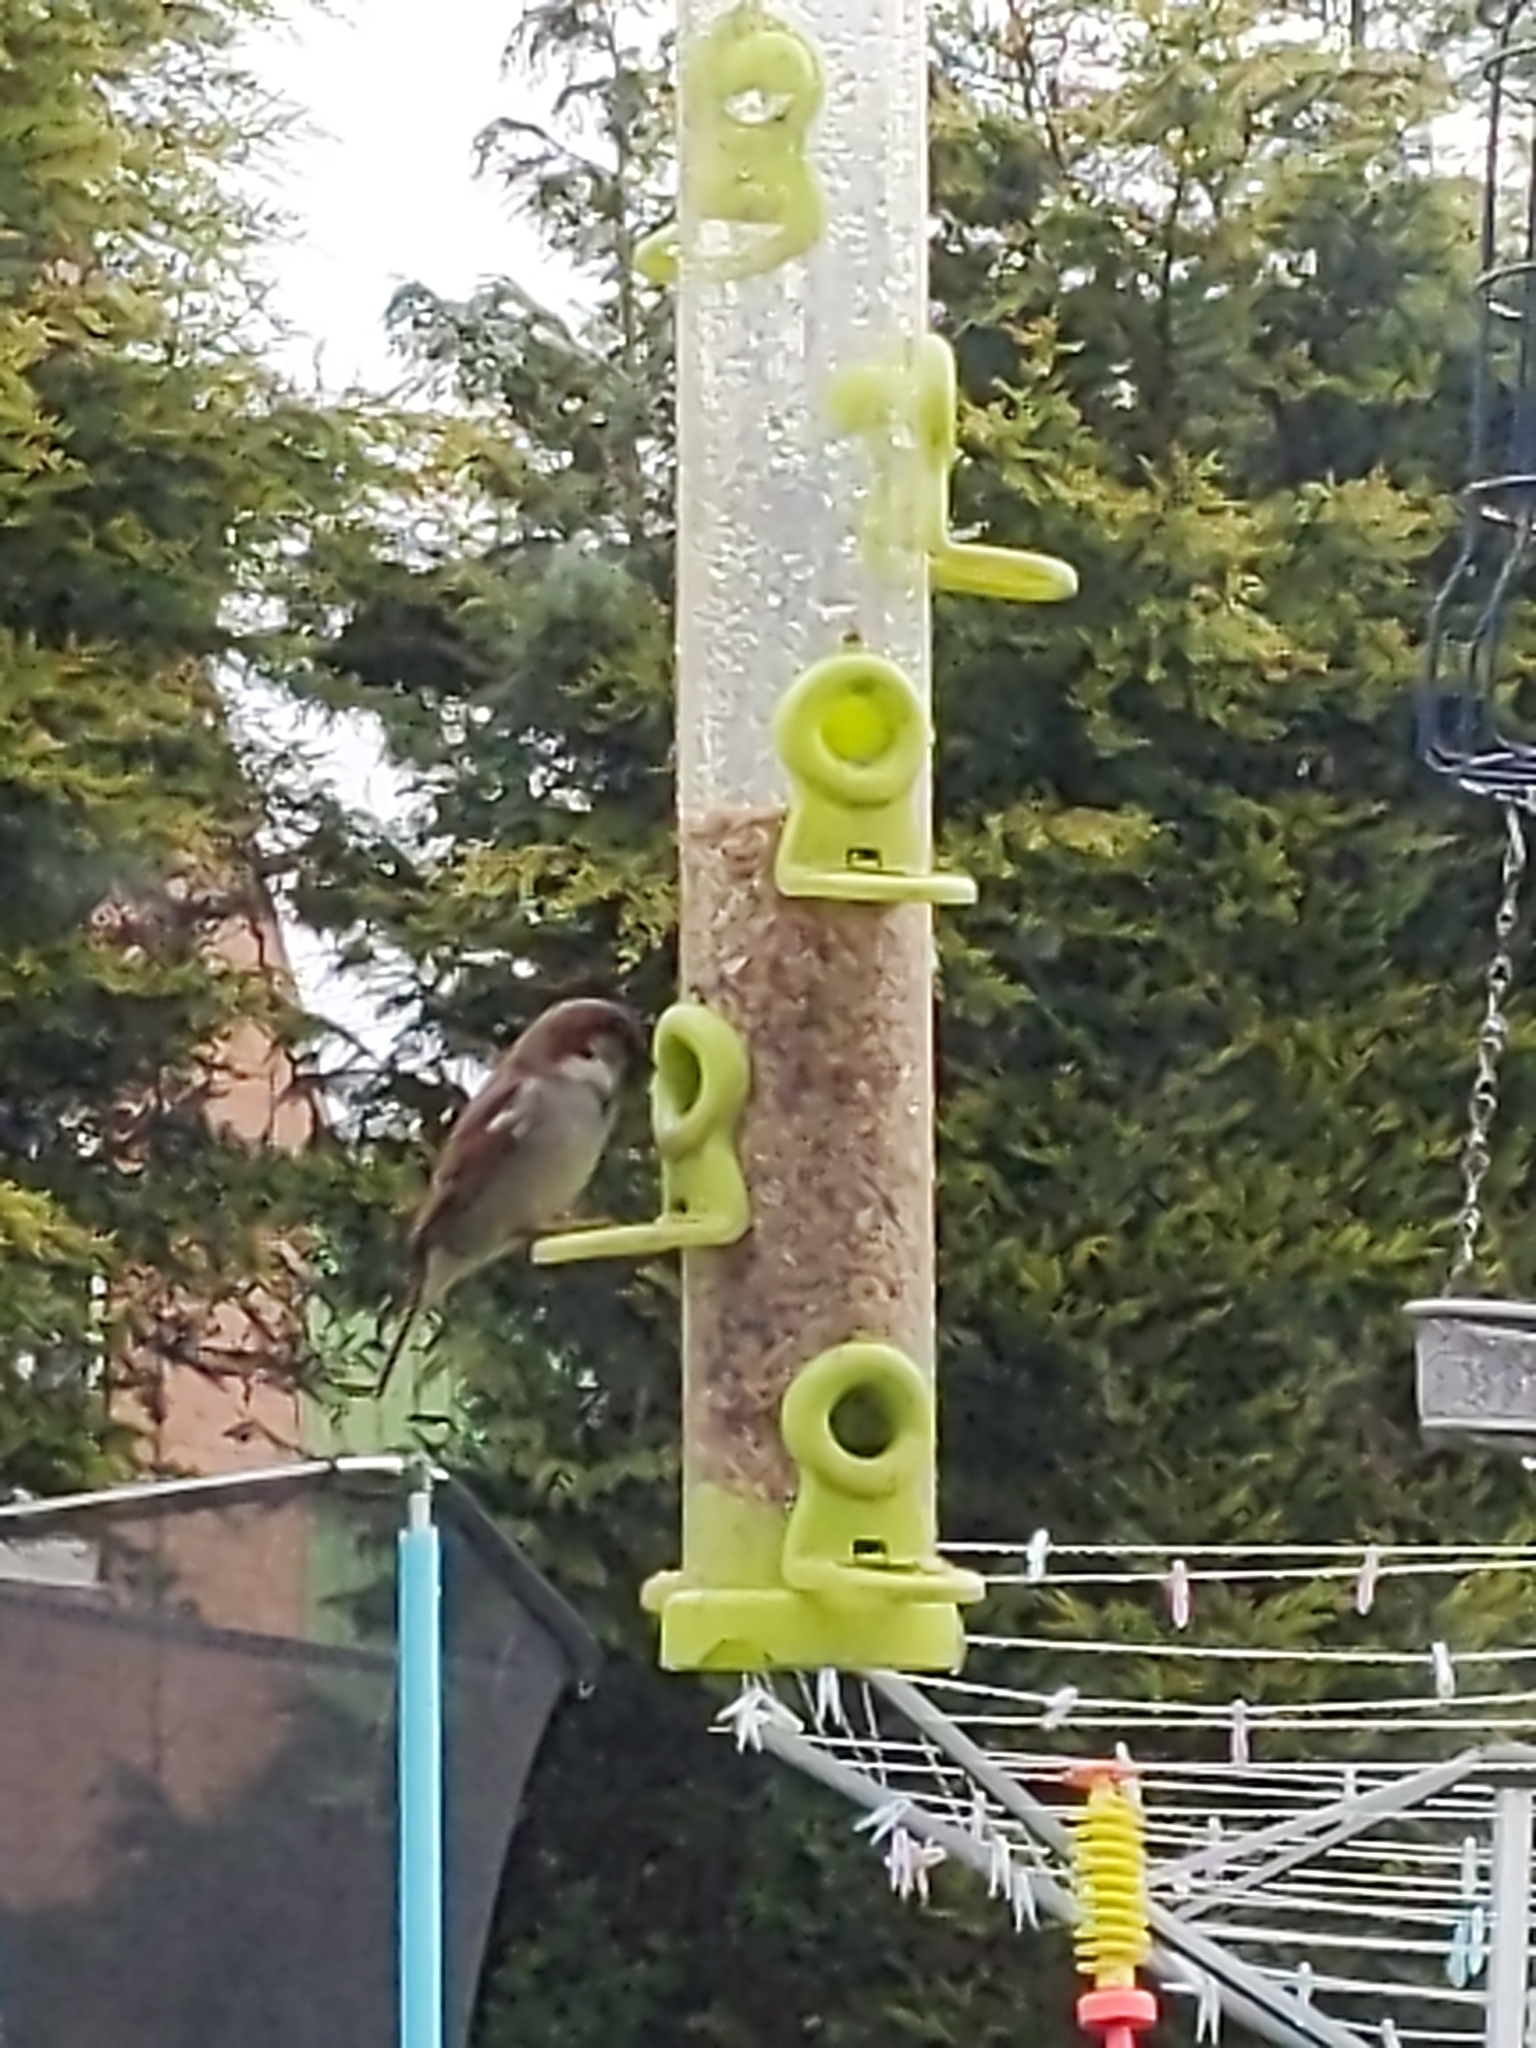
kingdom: Animalia
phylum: Chordata
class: Aves
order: Passeriformes
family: Passeridae
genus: Passer
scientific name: Passer domesticus
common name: House sparrow
